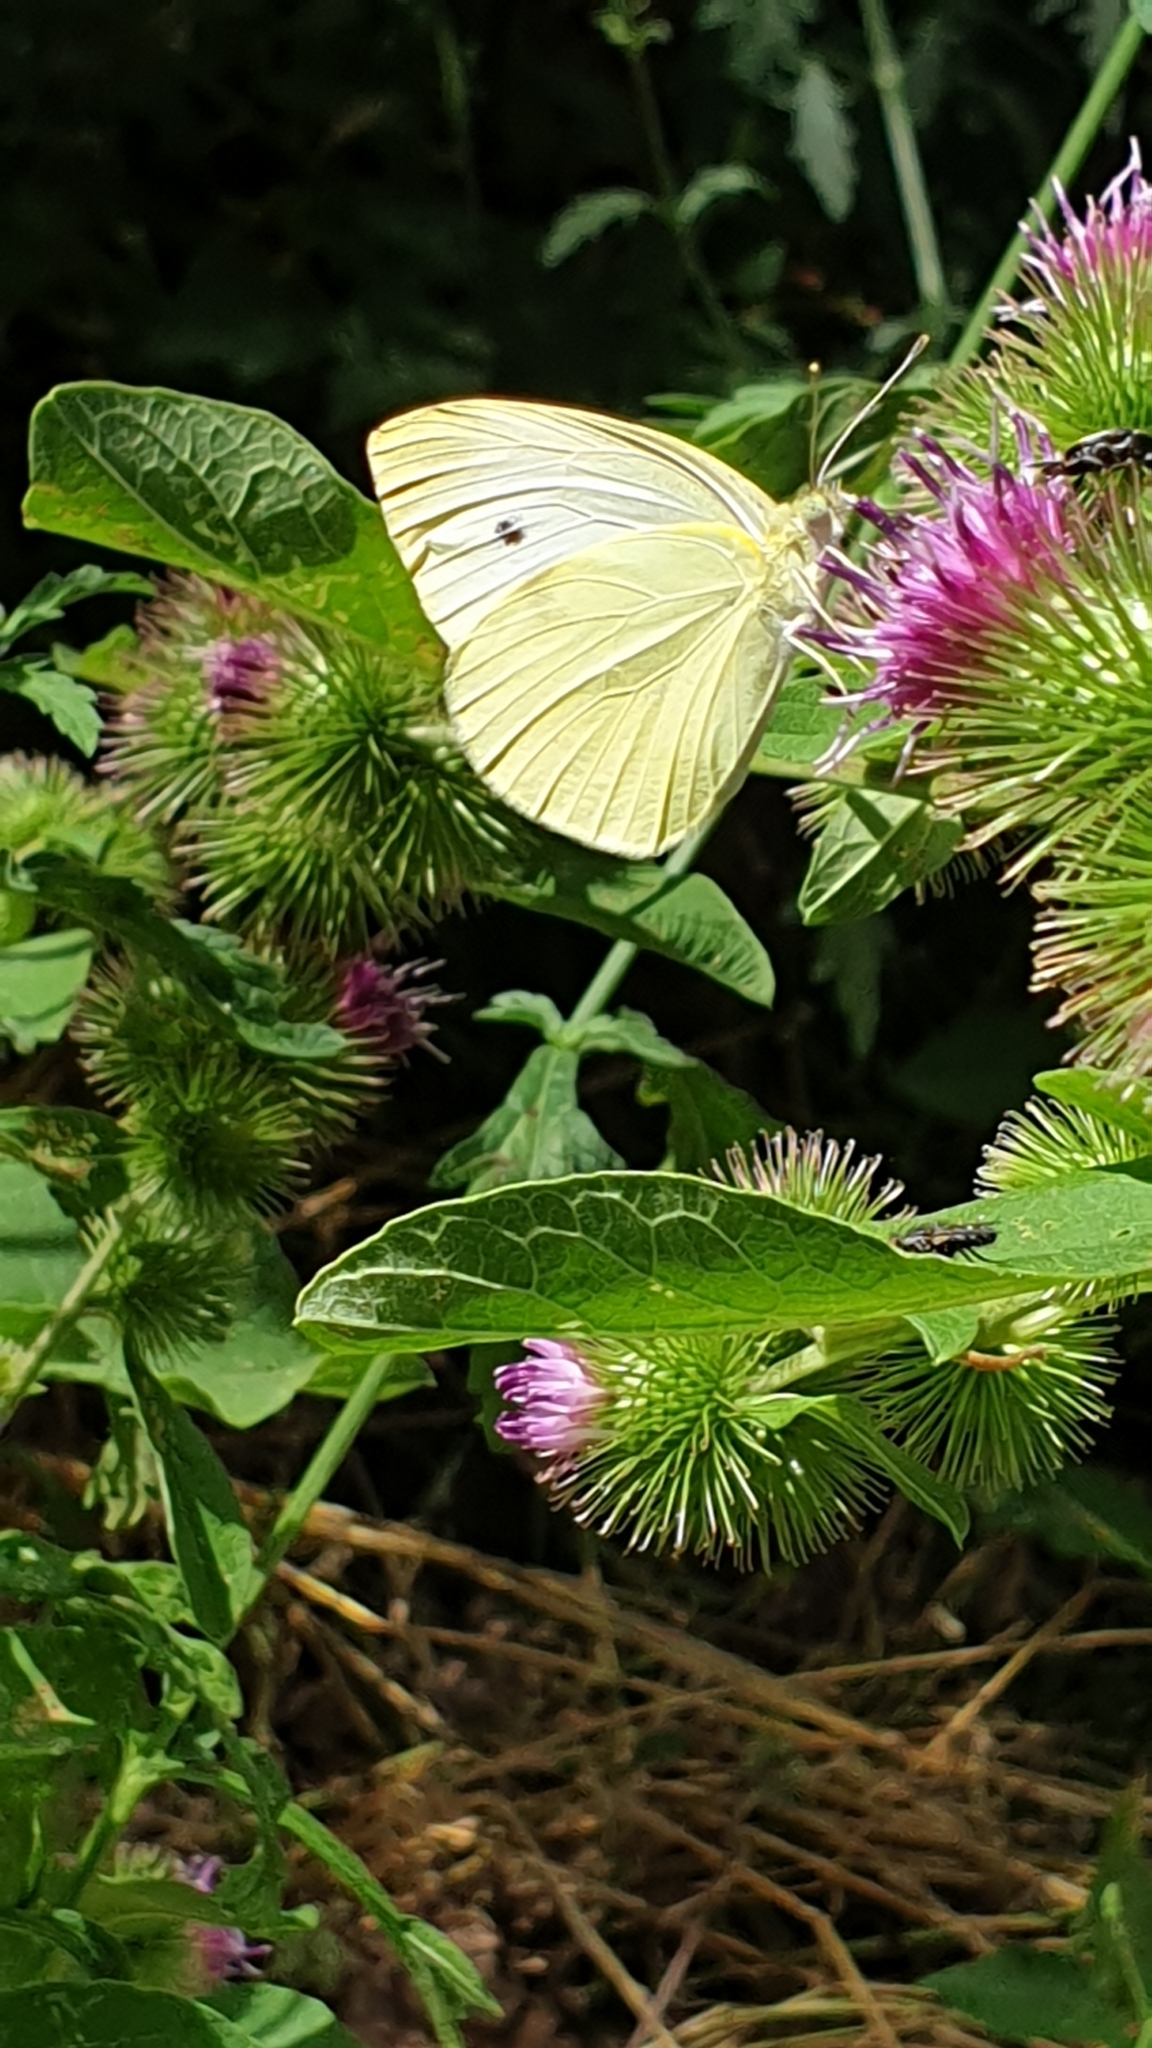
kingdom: Animalia
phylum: Arthropoda
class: Insecta
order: Lepidoptera
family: Pieridae
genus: Pieris
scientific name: Pieris rapae
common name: Small white
